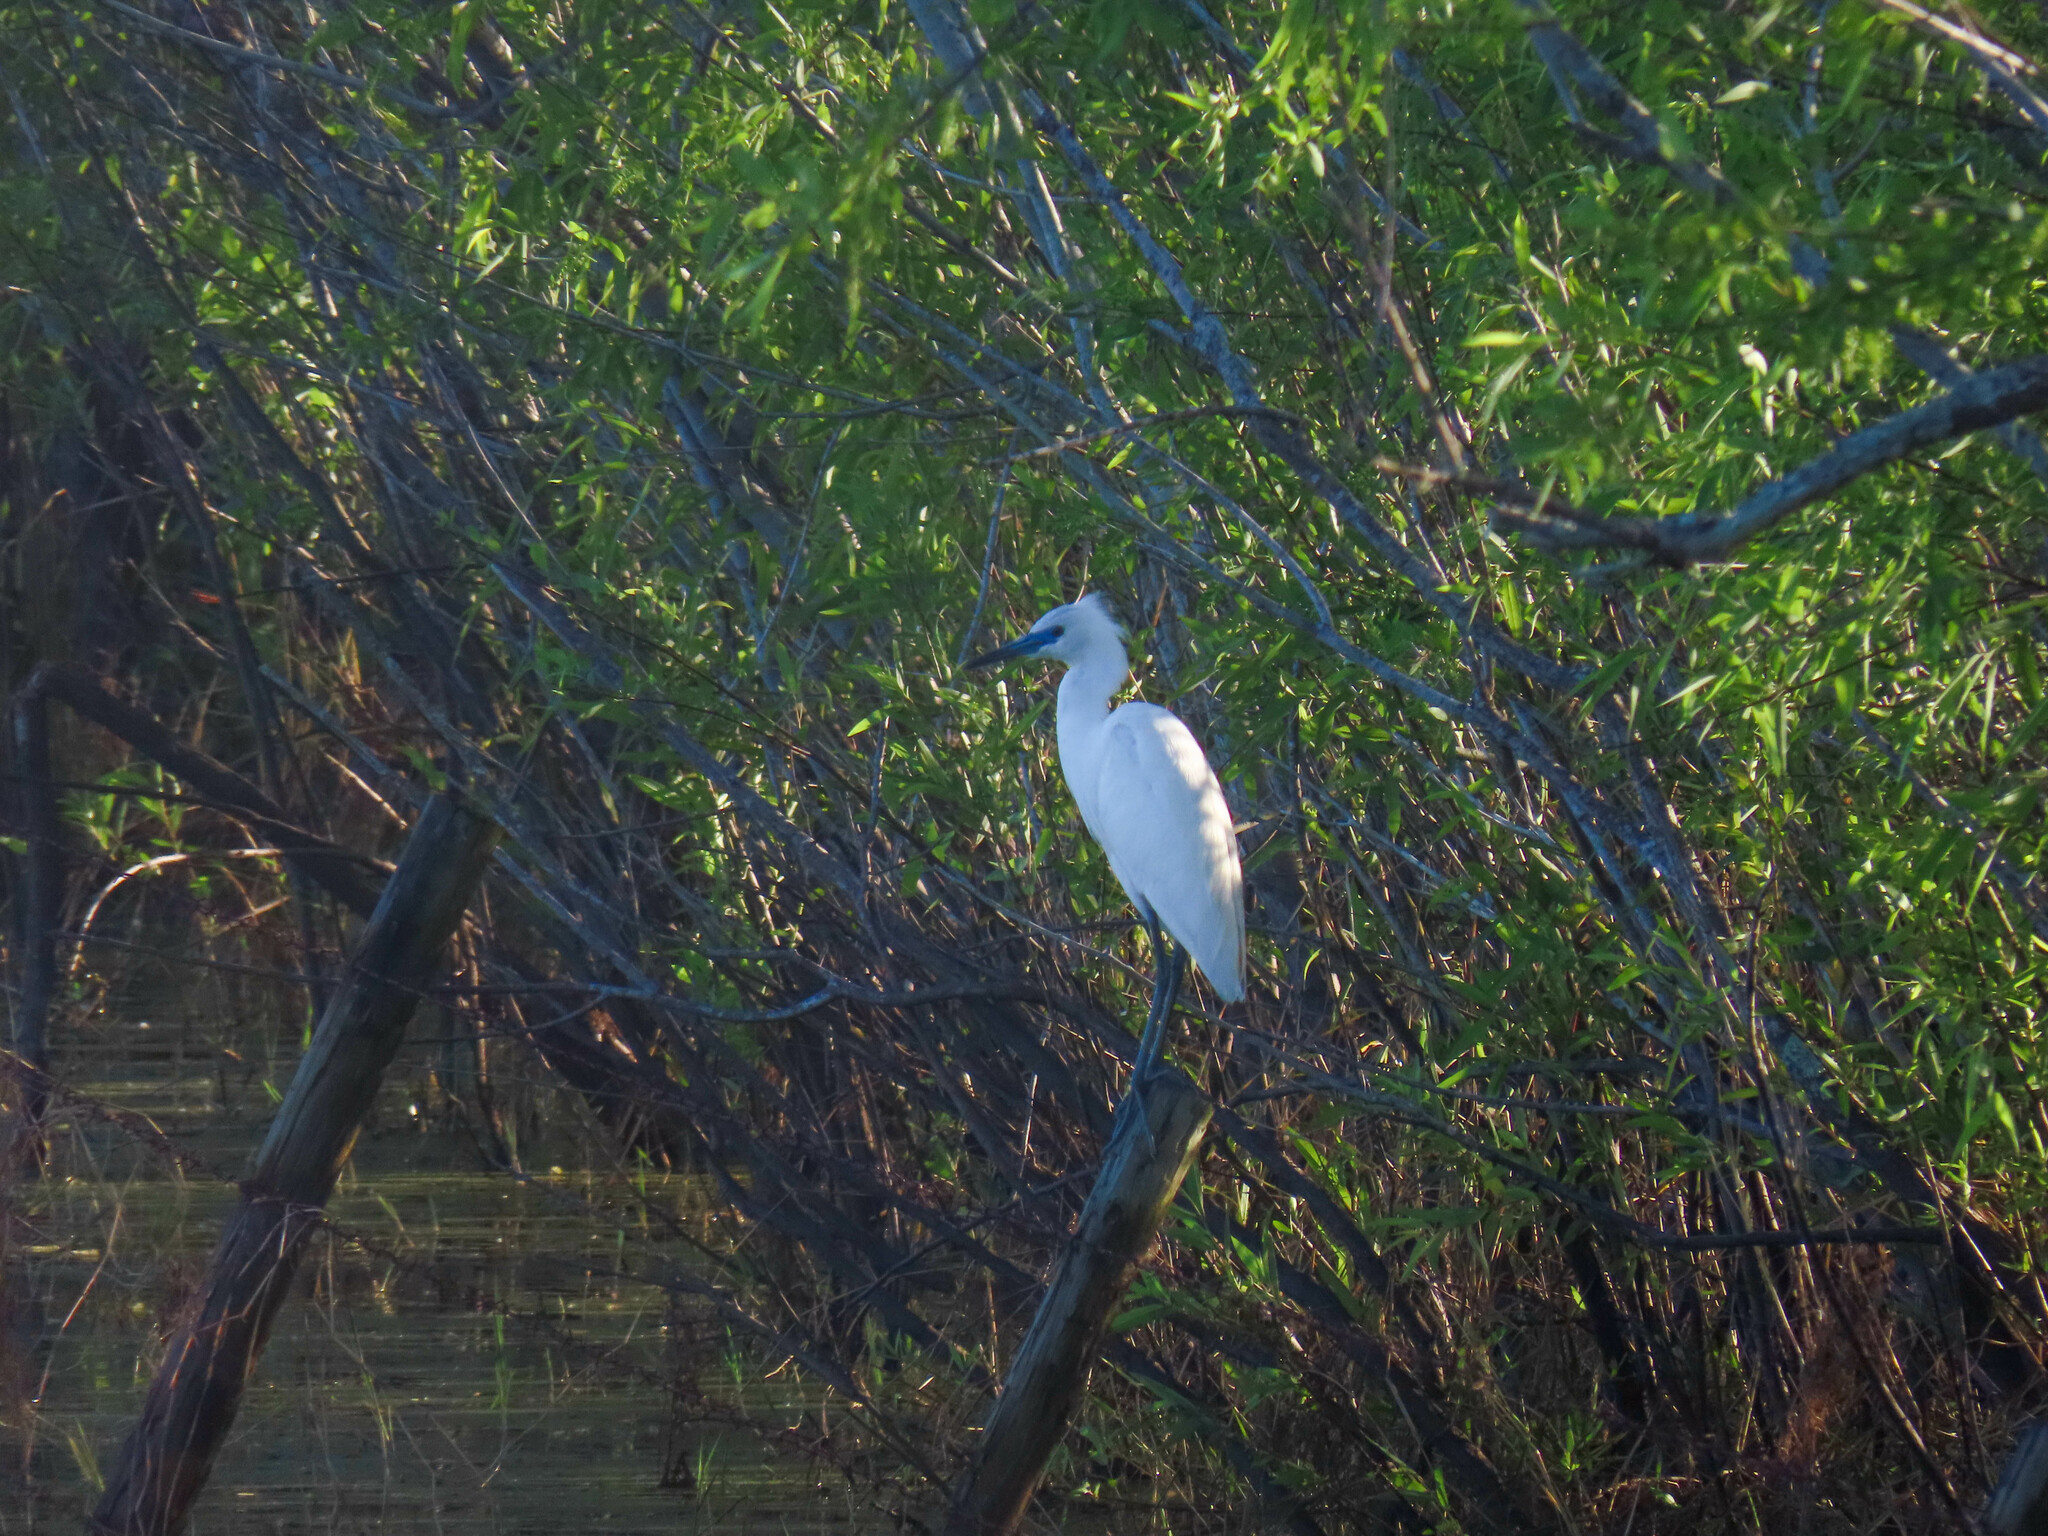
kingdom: Animalia
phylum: Chordata
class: Aves
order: Pelecaniformes
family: Ardeidae
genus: Egretta
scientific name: Egretta caerulea
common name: Little blue heron
